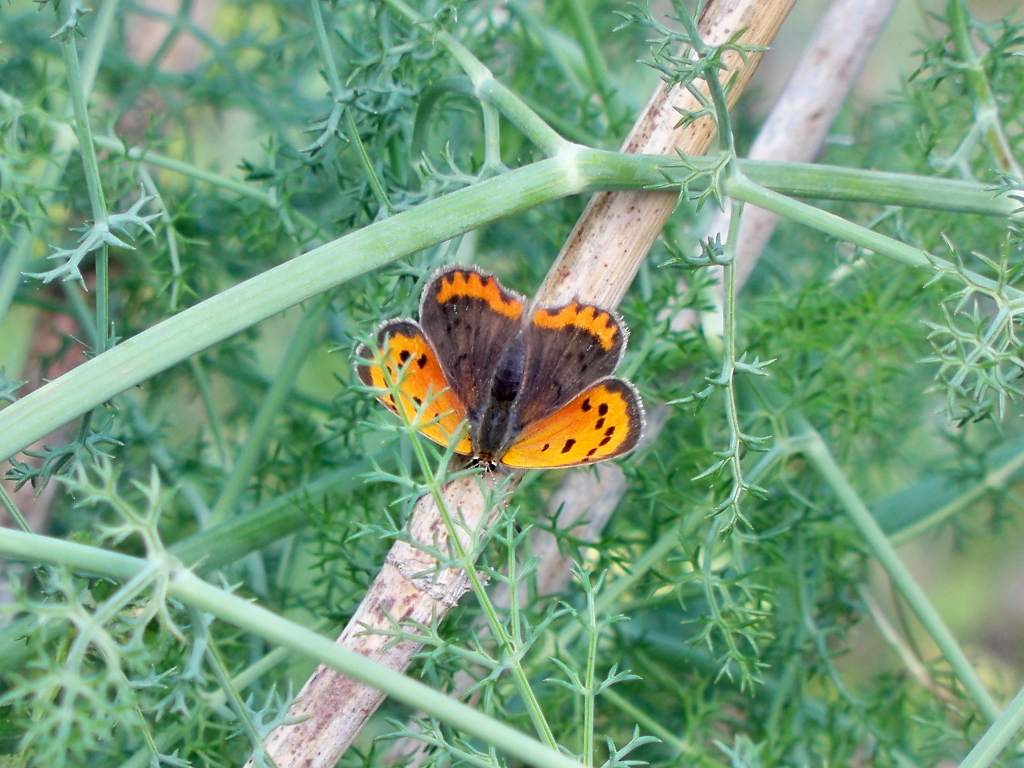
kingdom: Animalia
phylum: Arthropoda
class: Insecta
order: Lepidoptera
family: Lycaenidae
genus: Lycaena
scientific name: Lycaena phlaeas
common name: Small copper
